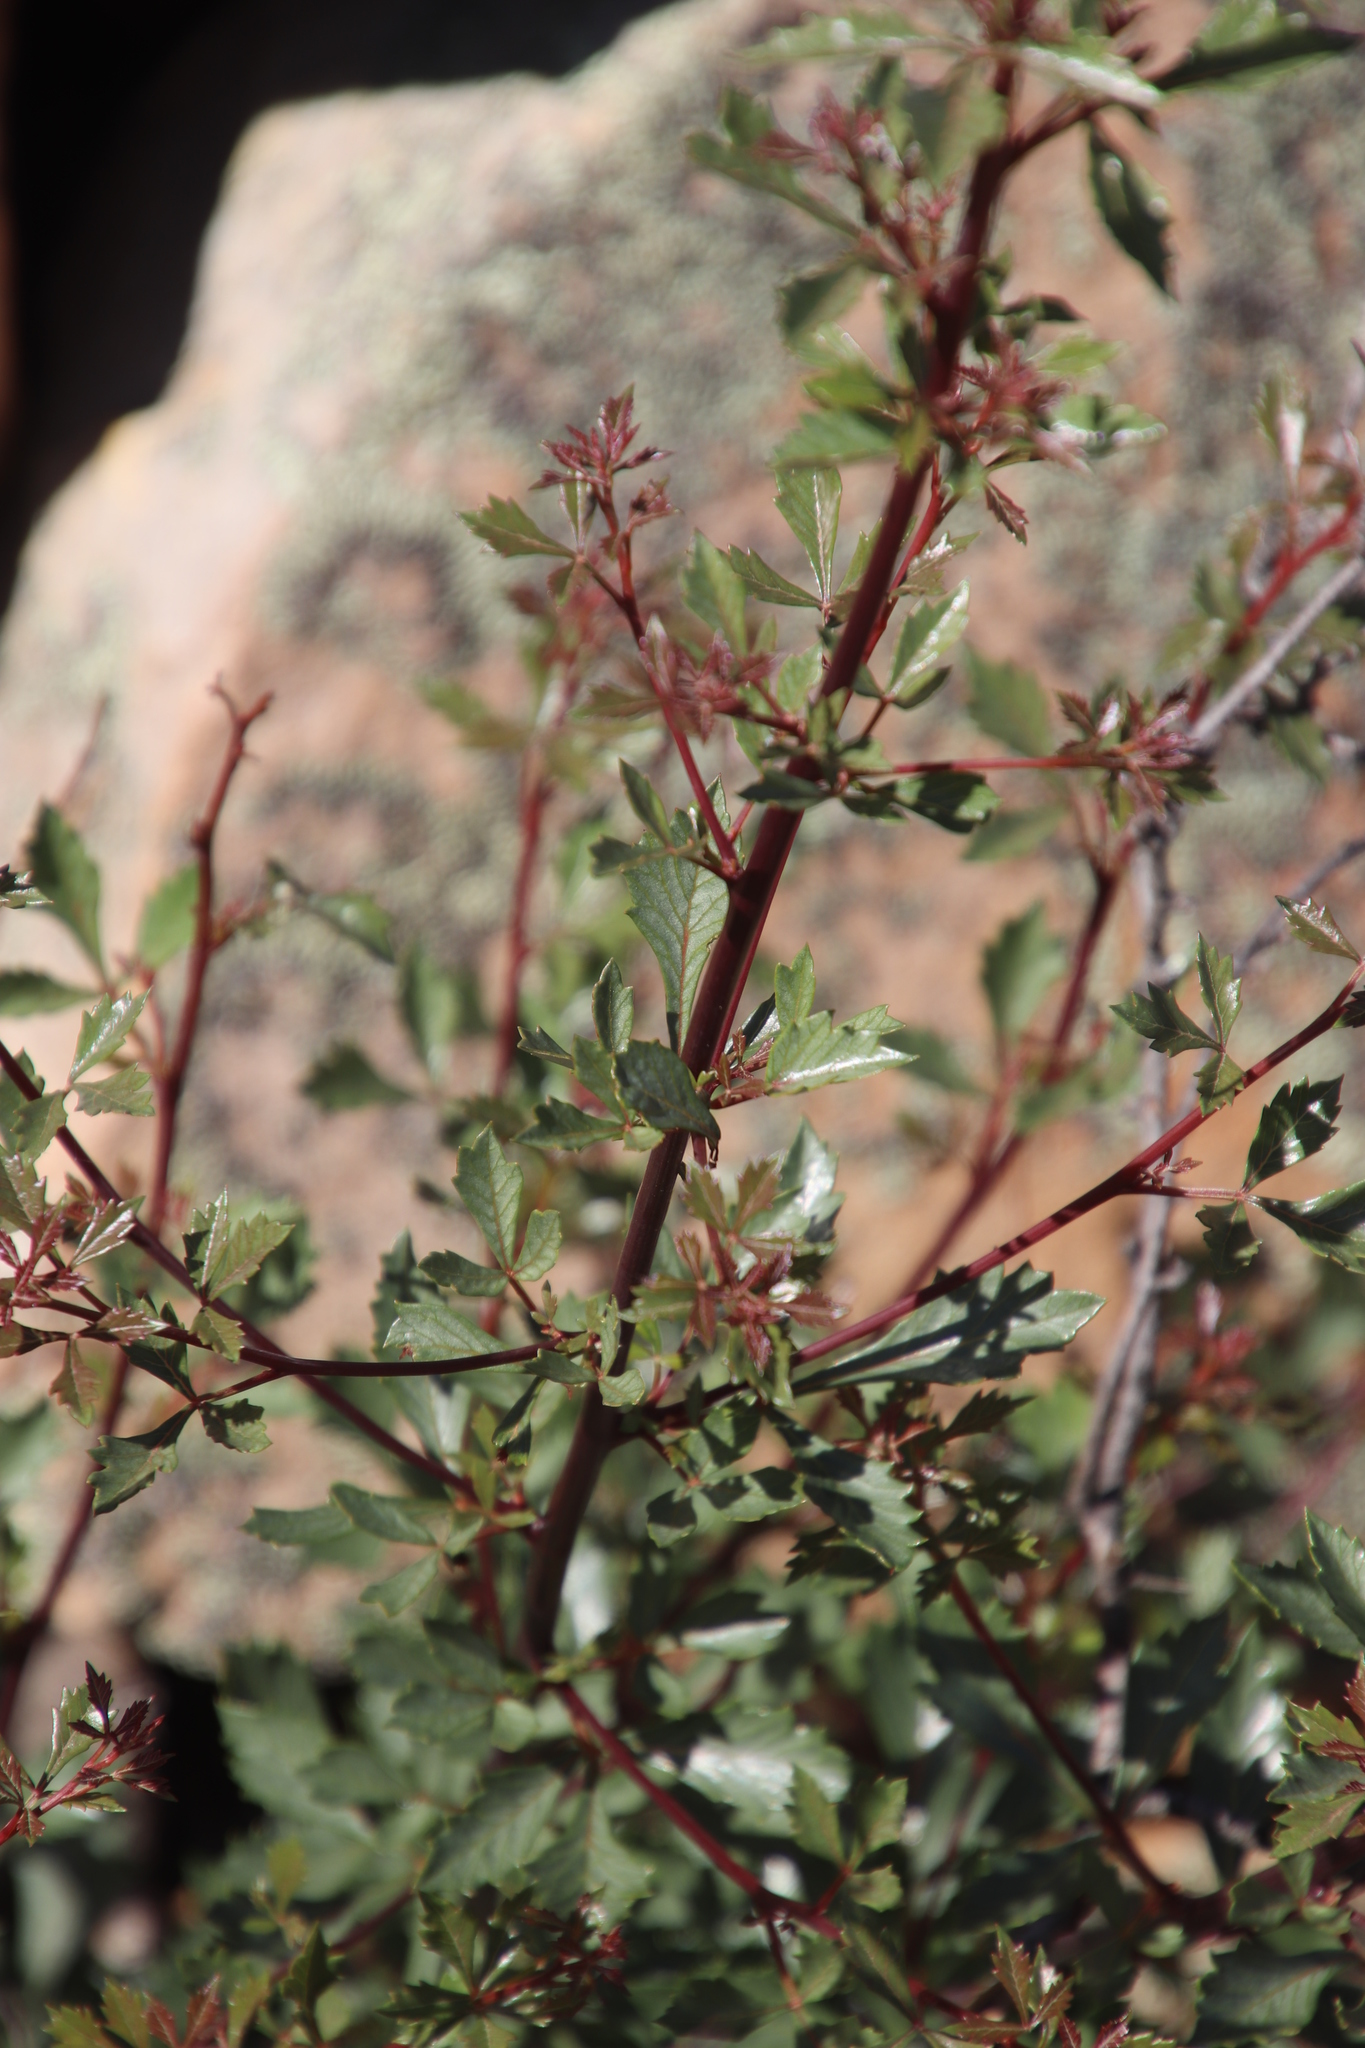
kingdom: Plantae
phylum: Tracheophyta
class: Magnoliopsida
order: Sapindales
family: Anacardiaceae
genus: Searsia
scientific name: Searsia dissecta
